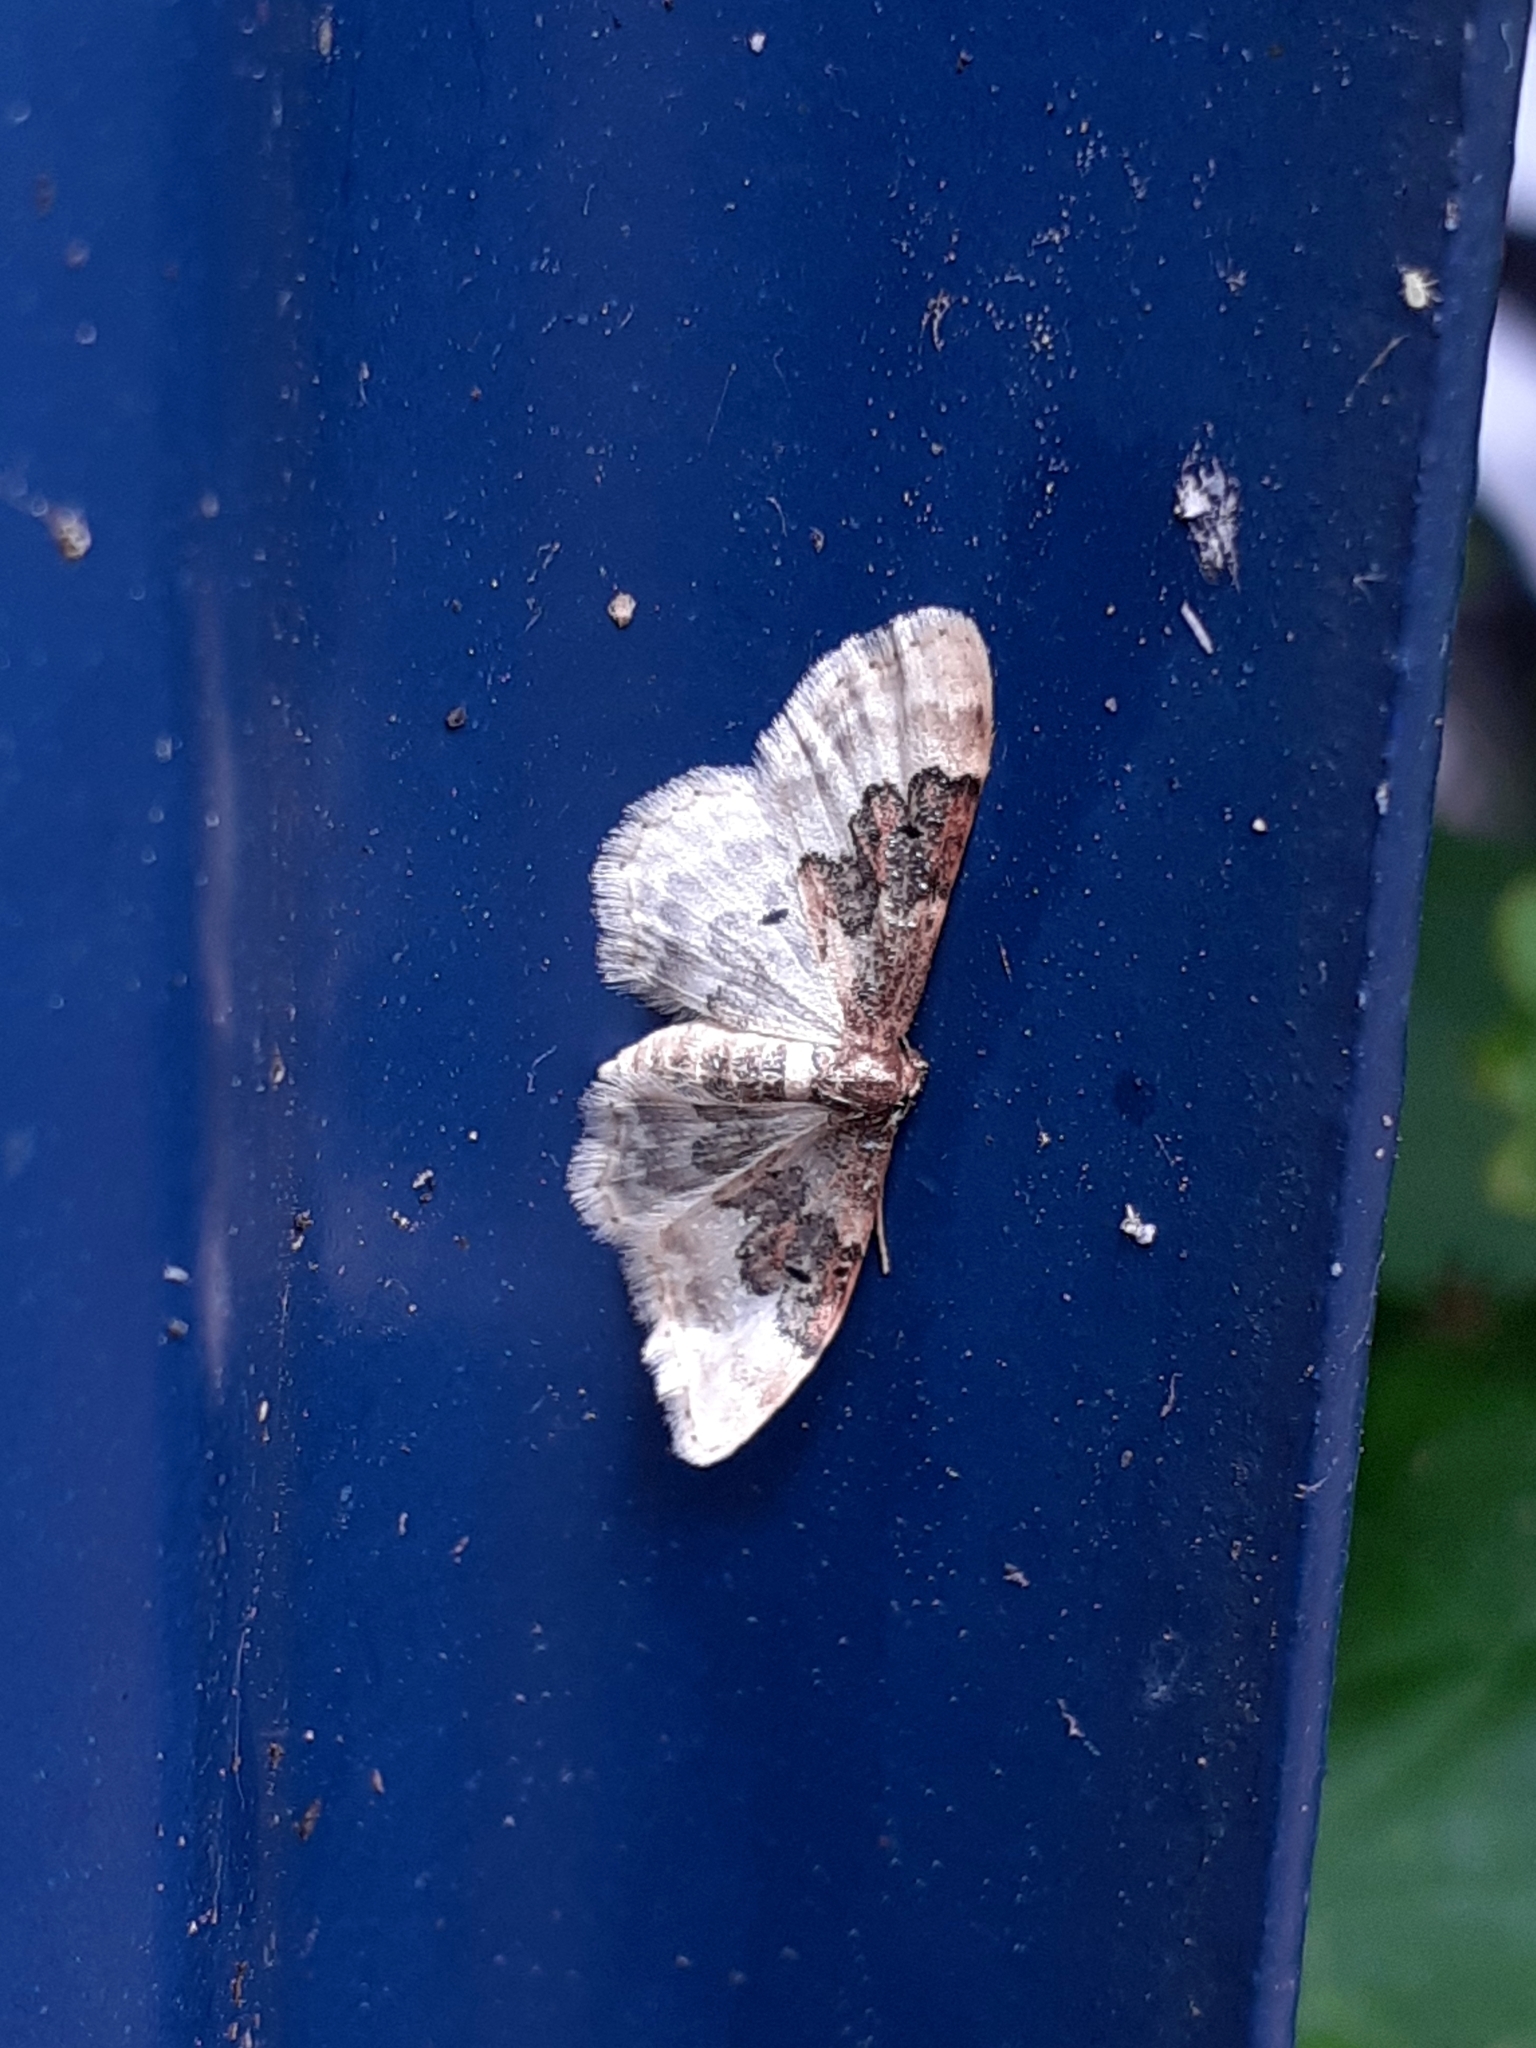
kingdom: Animalia
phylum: Arthropoda
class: Insecta
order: Lepidoptera
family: Geometridae
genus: Idaea
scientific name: Idaea rusticata
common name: Least carpet
